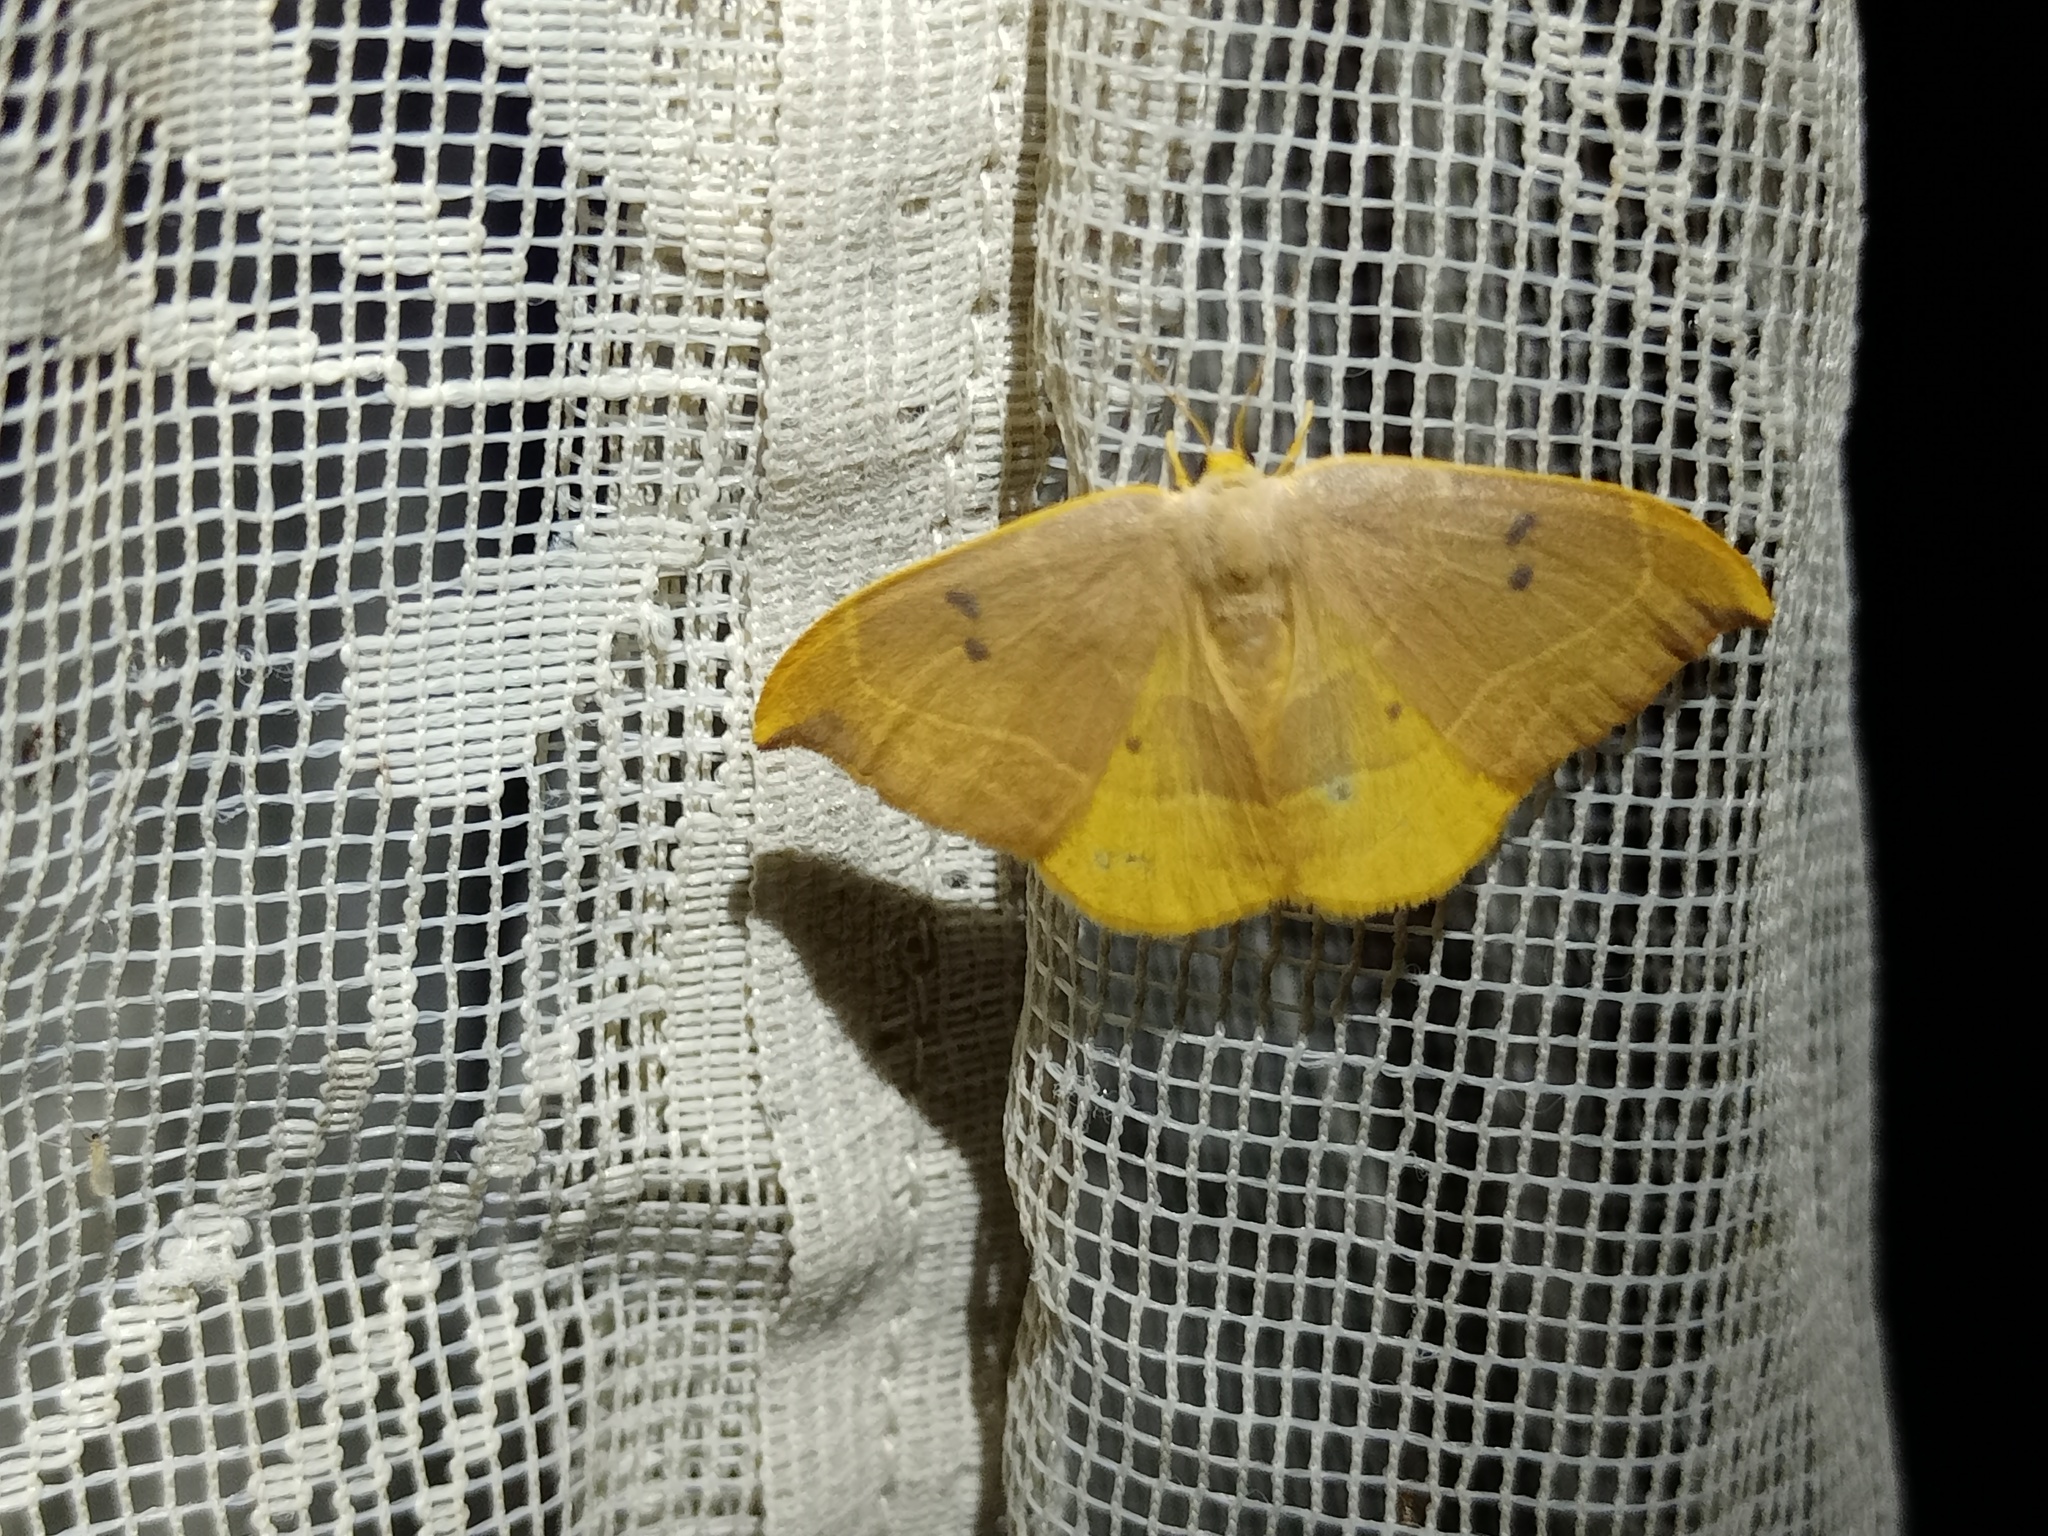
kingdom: Animalia
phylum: Arthropoda
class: Insecta
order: Lepidoptera
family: Drepanidae
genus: Watsonalla
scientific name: Watsonalla binaria
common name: Oak hook-tip
